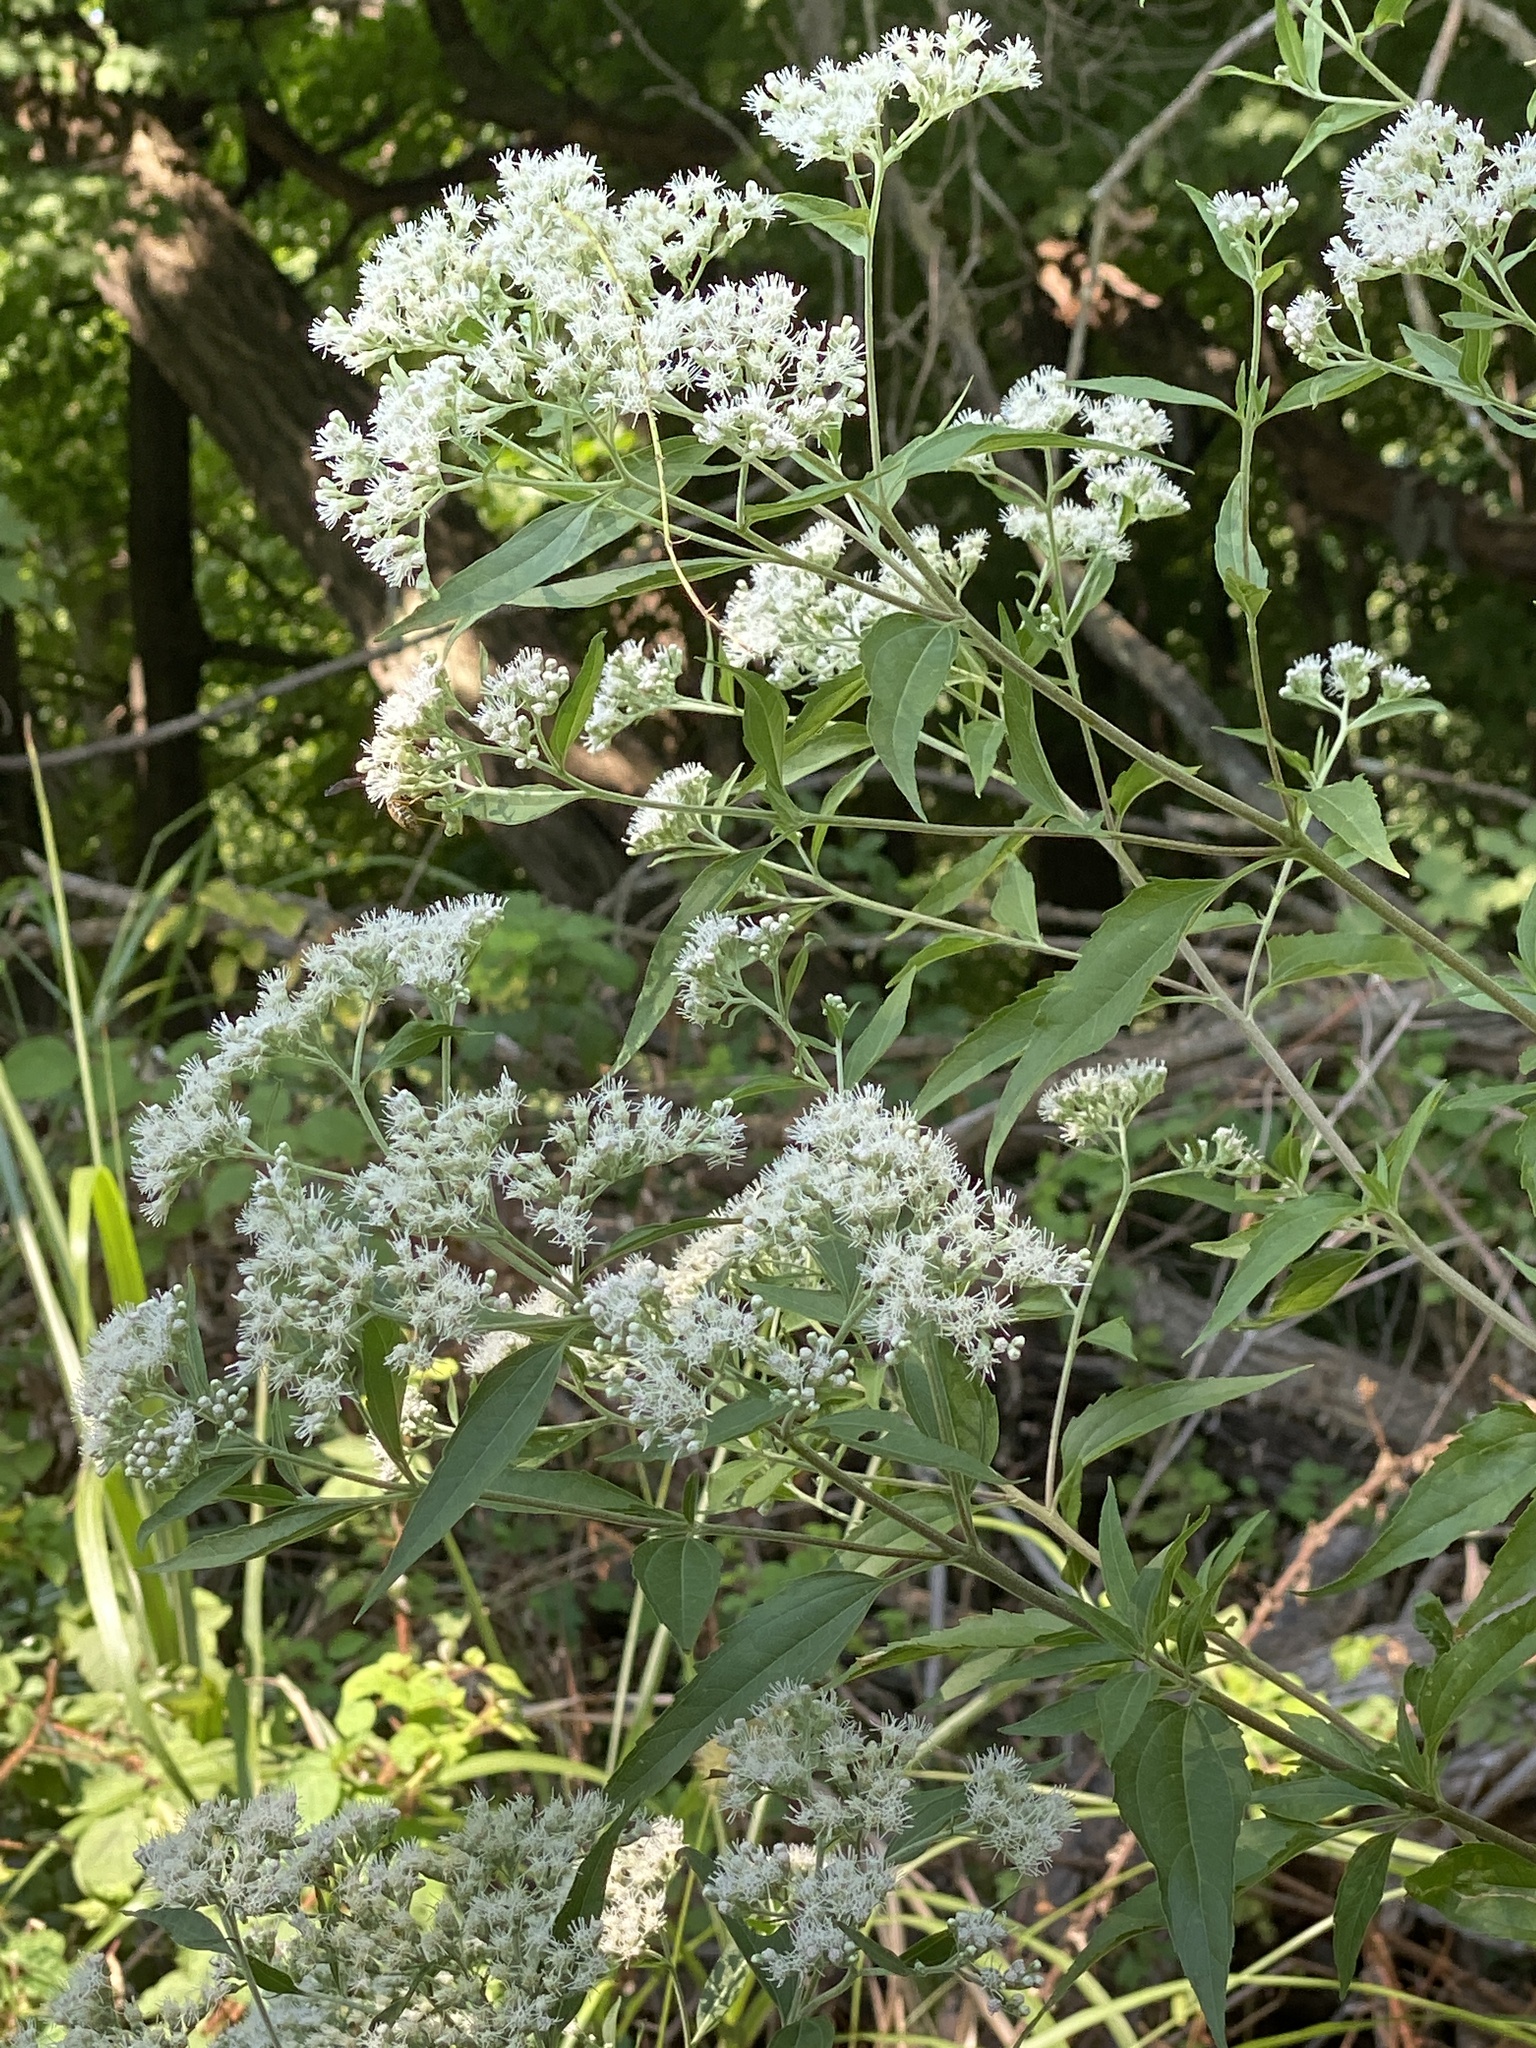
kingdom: Plantae
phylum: Tracheophyta
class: Magnoliopsida
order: Asterales
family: Asteraceae
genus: Eupatorium
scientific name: Eupatorium serotinum
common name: Late boneset
